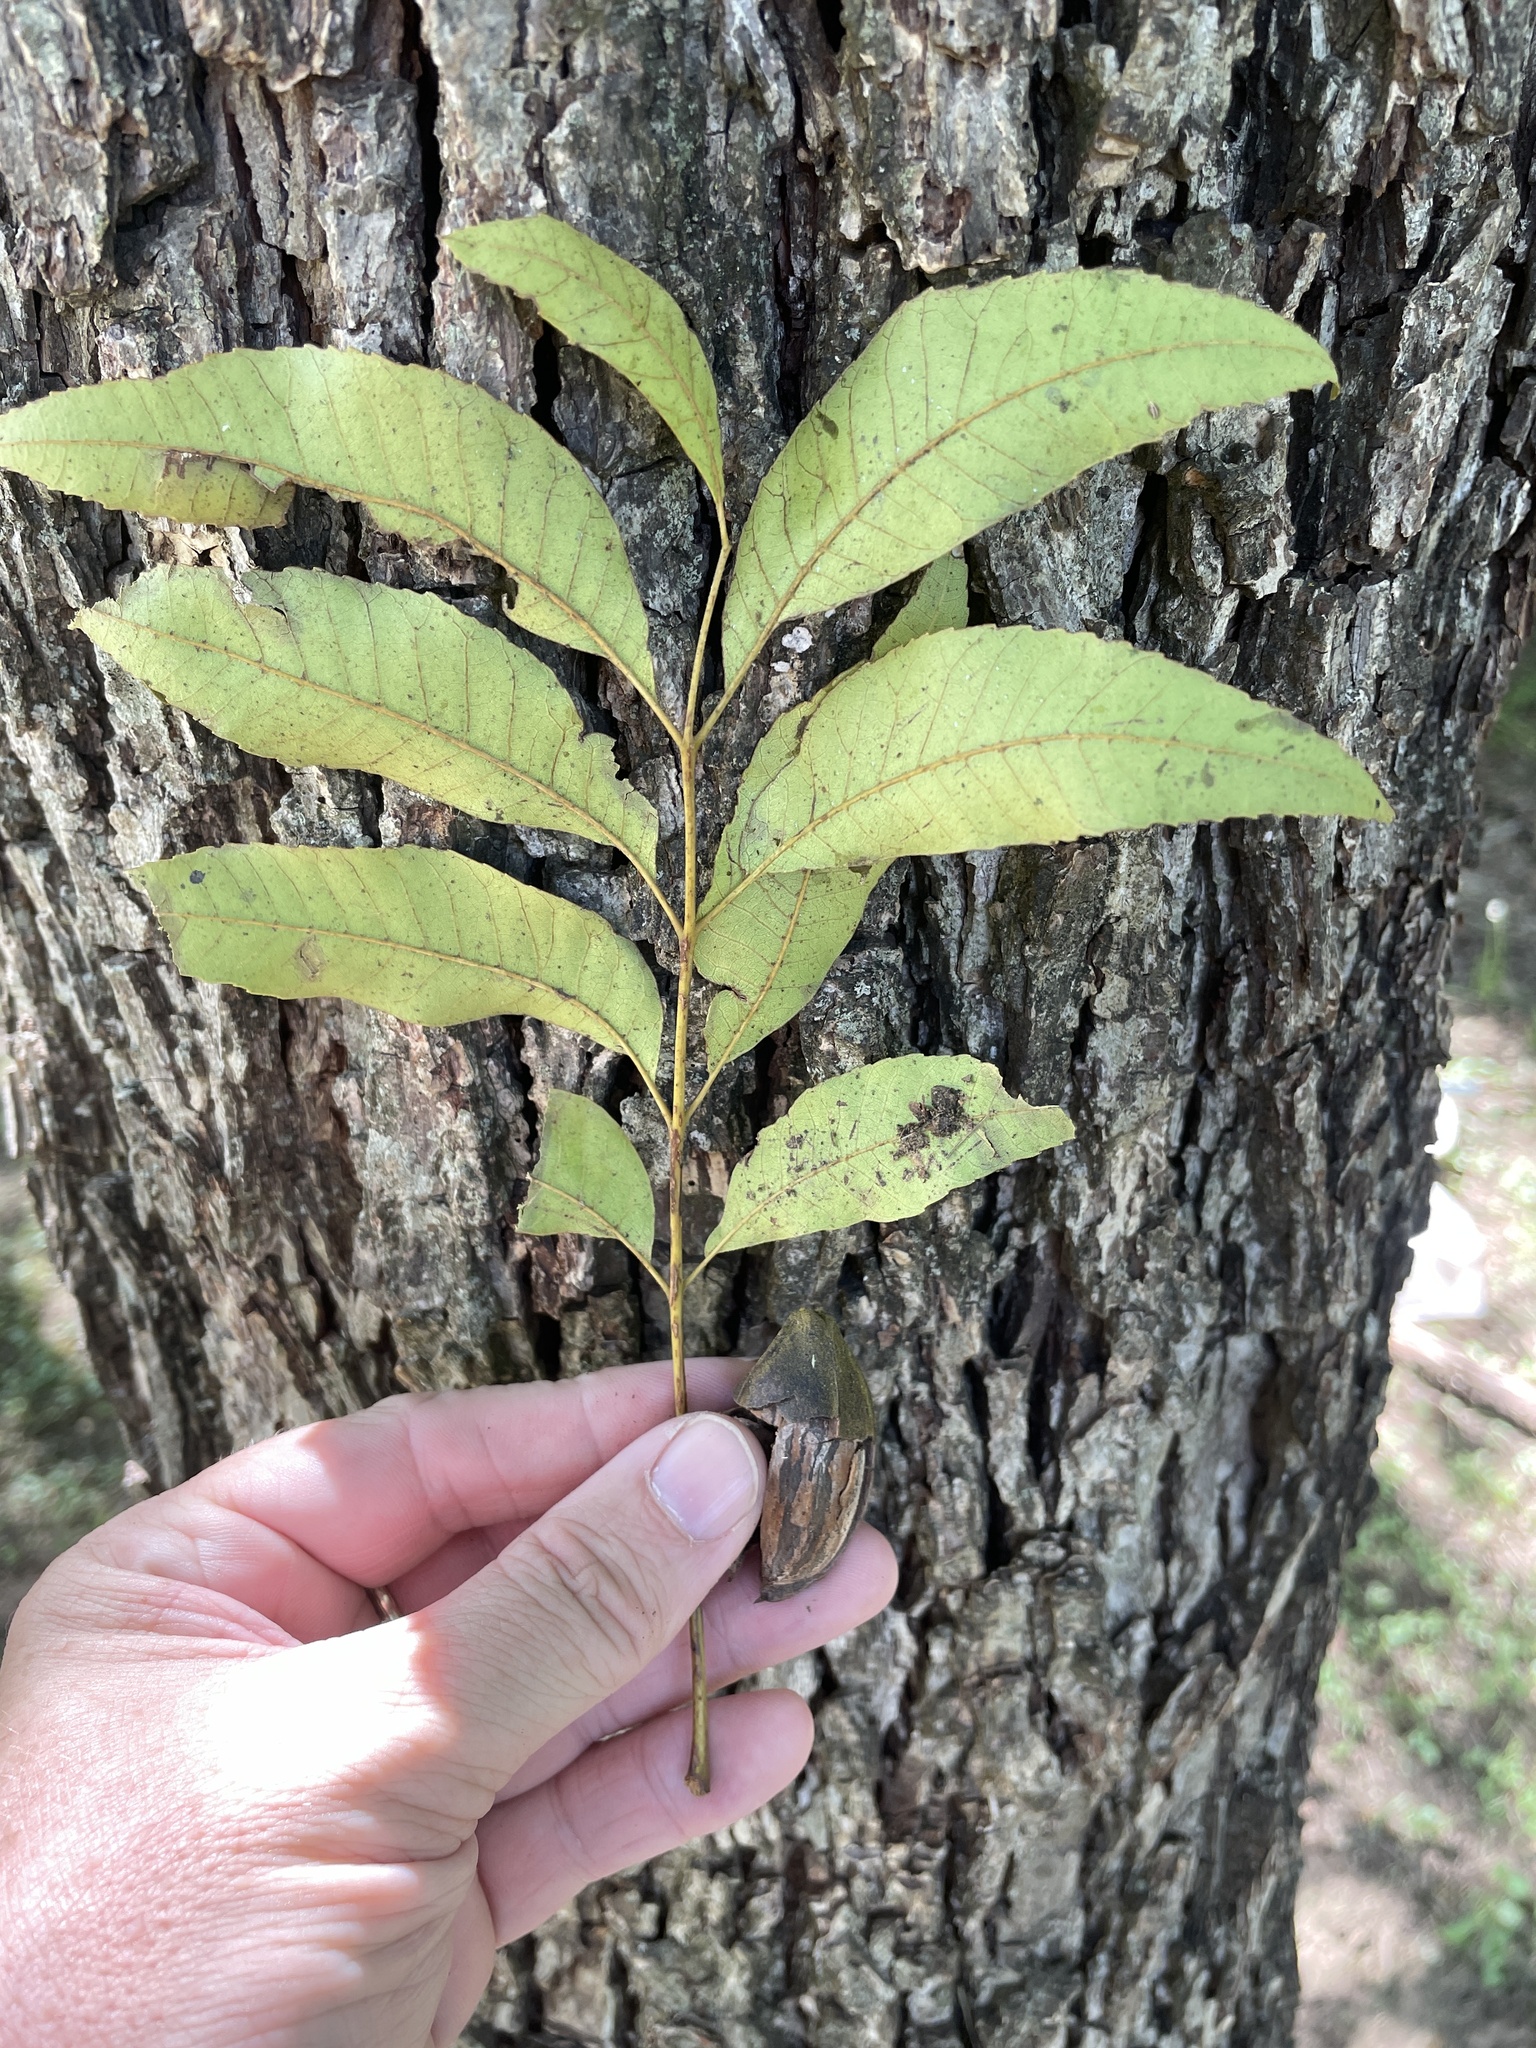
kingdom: Plantae
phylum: Tracheophyta
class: Magnoliopsida
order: Fagales
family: Juglandaceae
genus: Carya
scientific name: Carya illinoinensis
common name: Pecan
